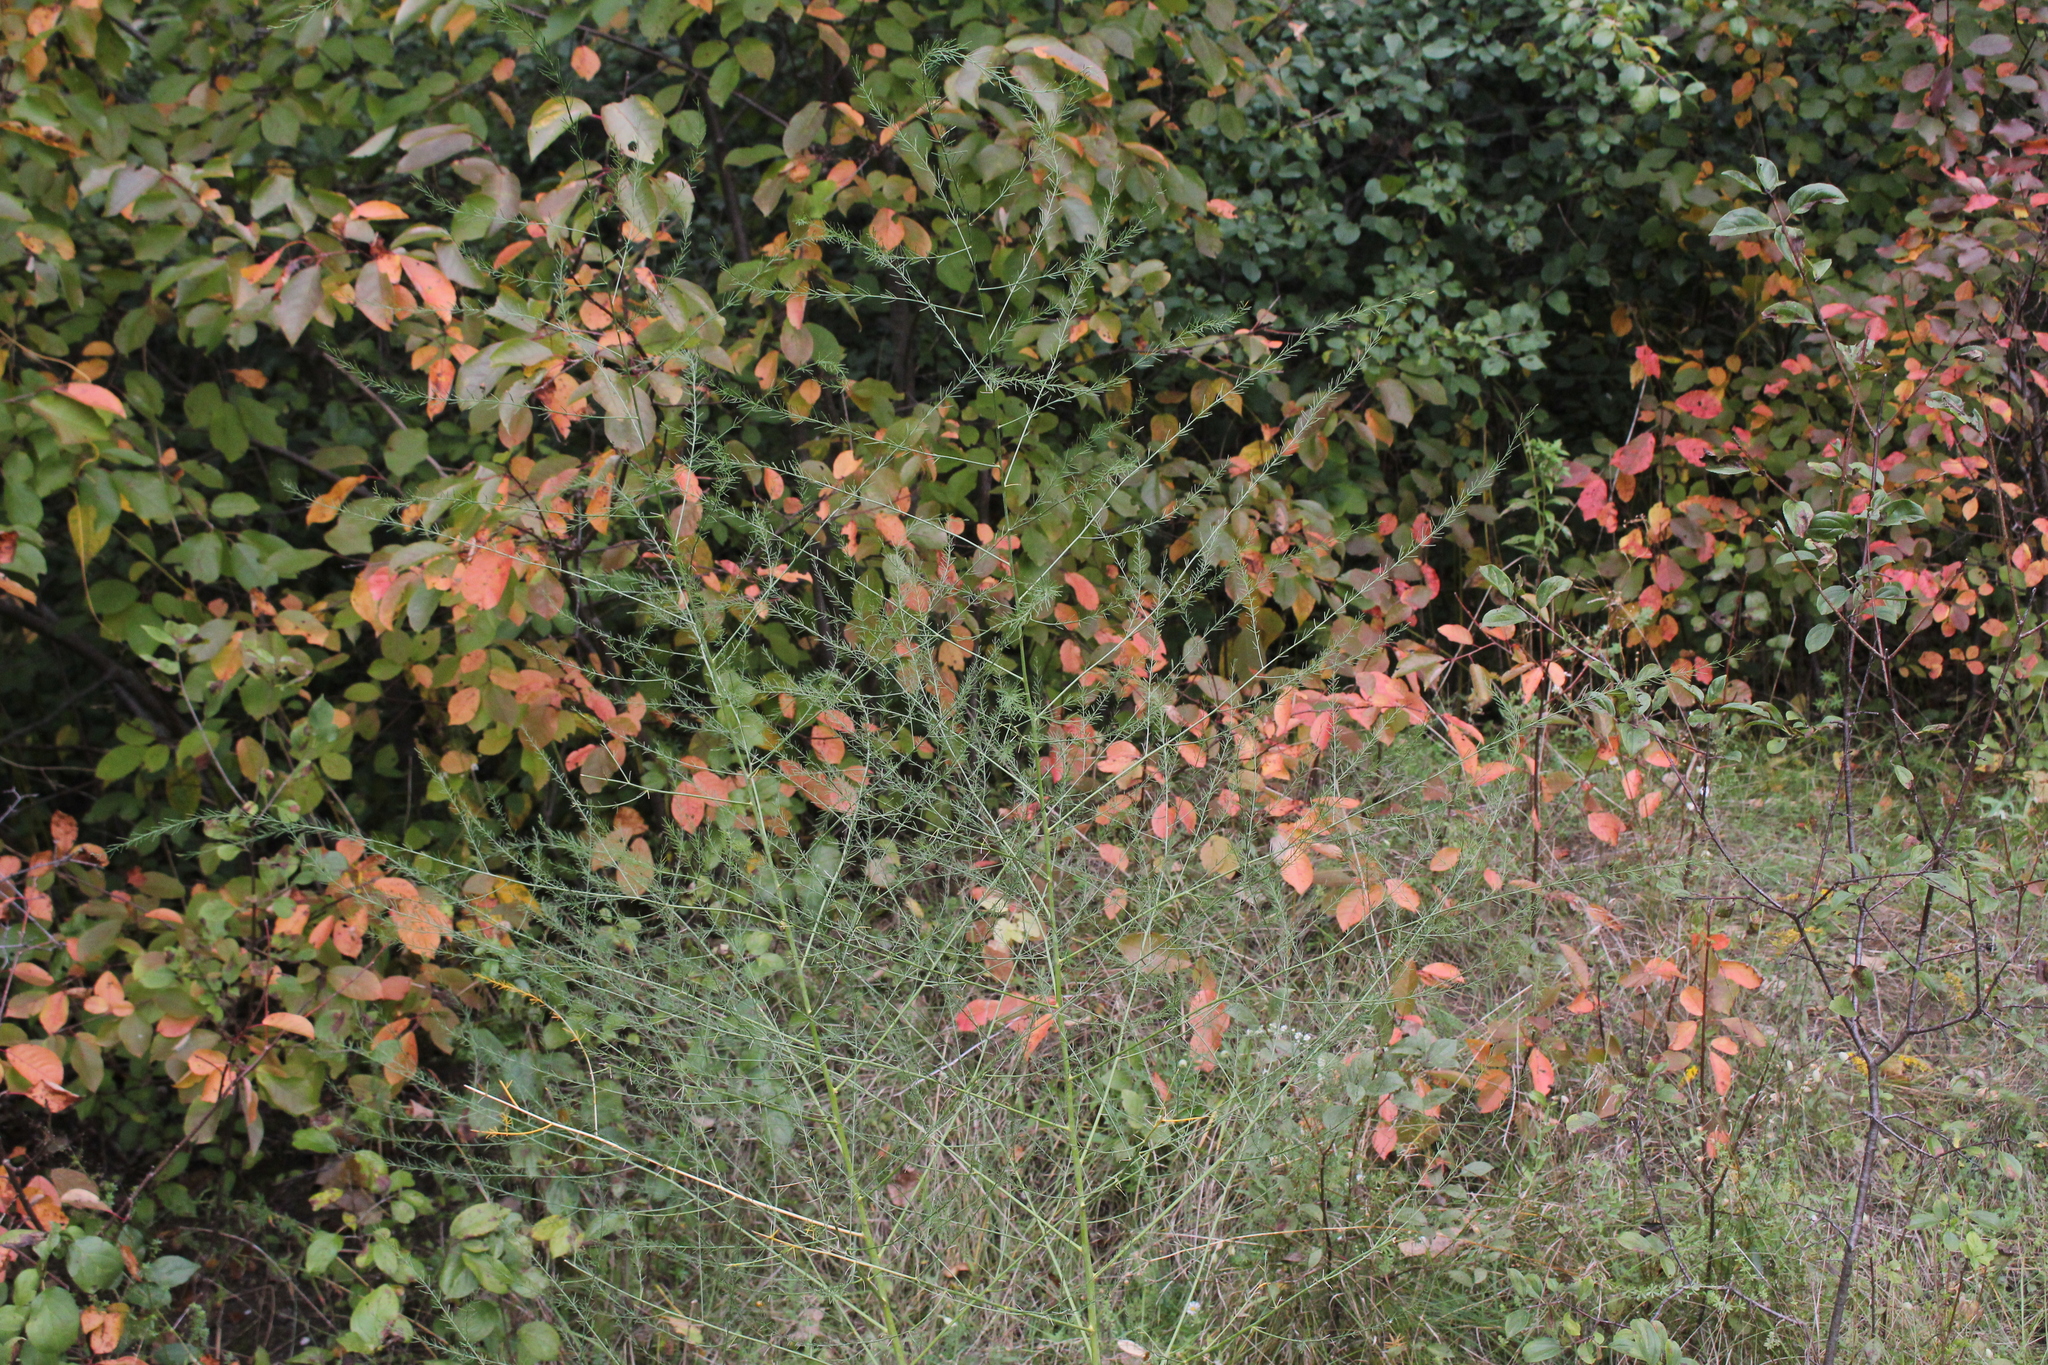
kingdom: Plantae
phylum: Tracheophyta
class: Liliopsida
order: Asparagales
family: Asparagaceae
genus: Asparagus
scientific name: Asparagus officinalis
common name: Garden asparagus
